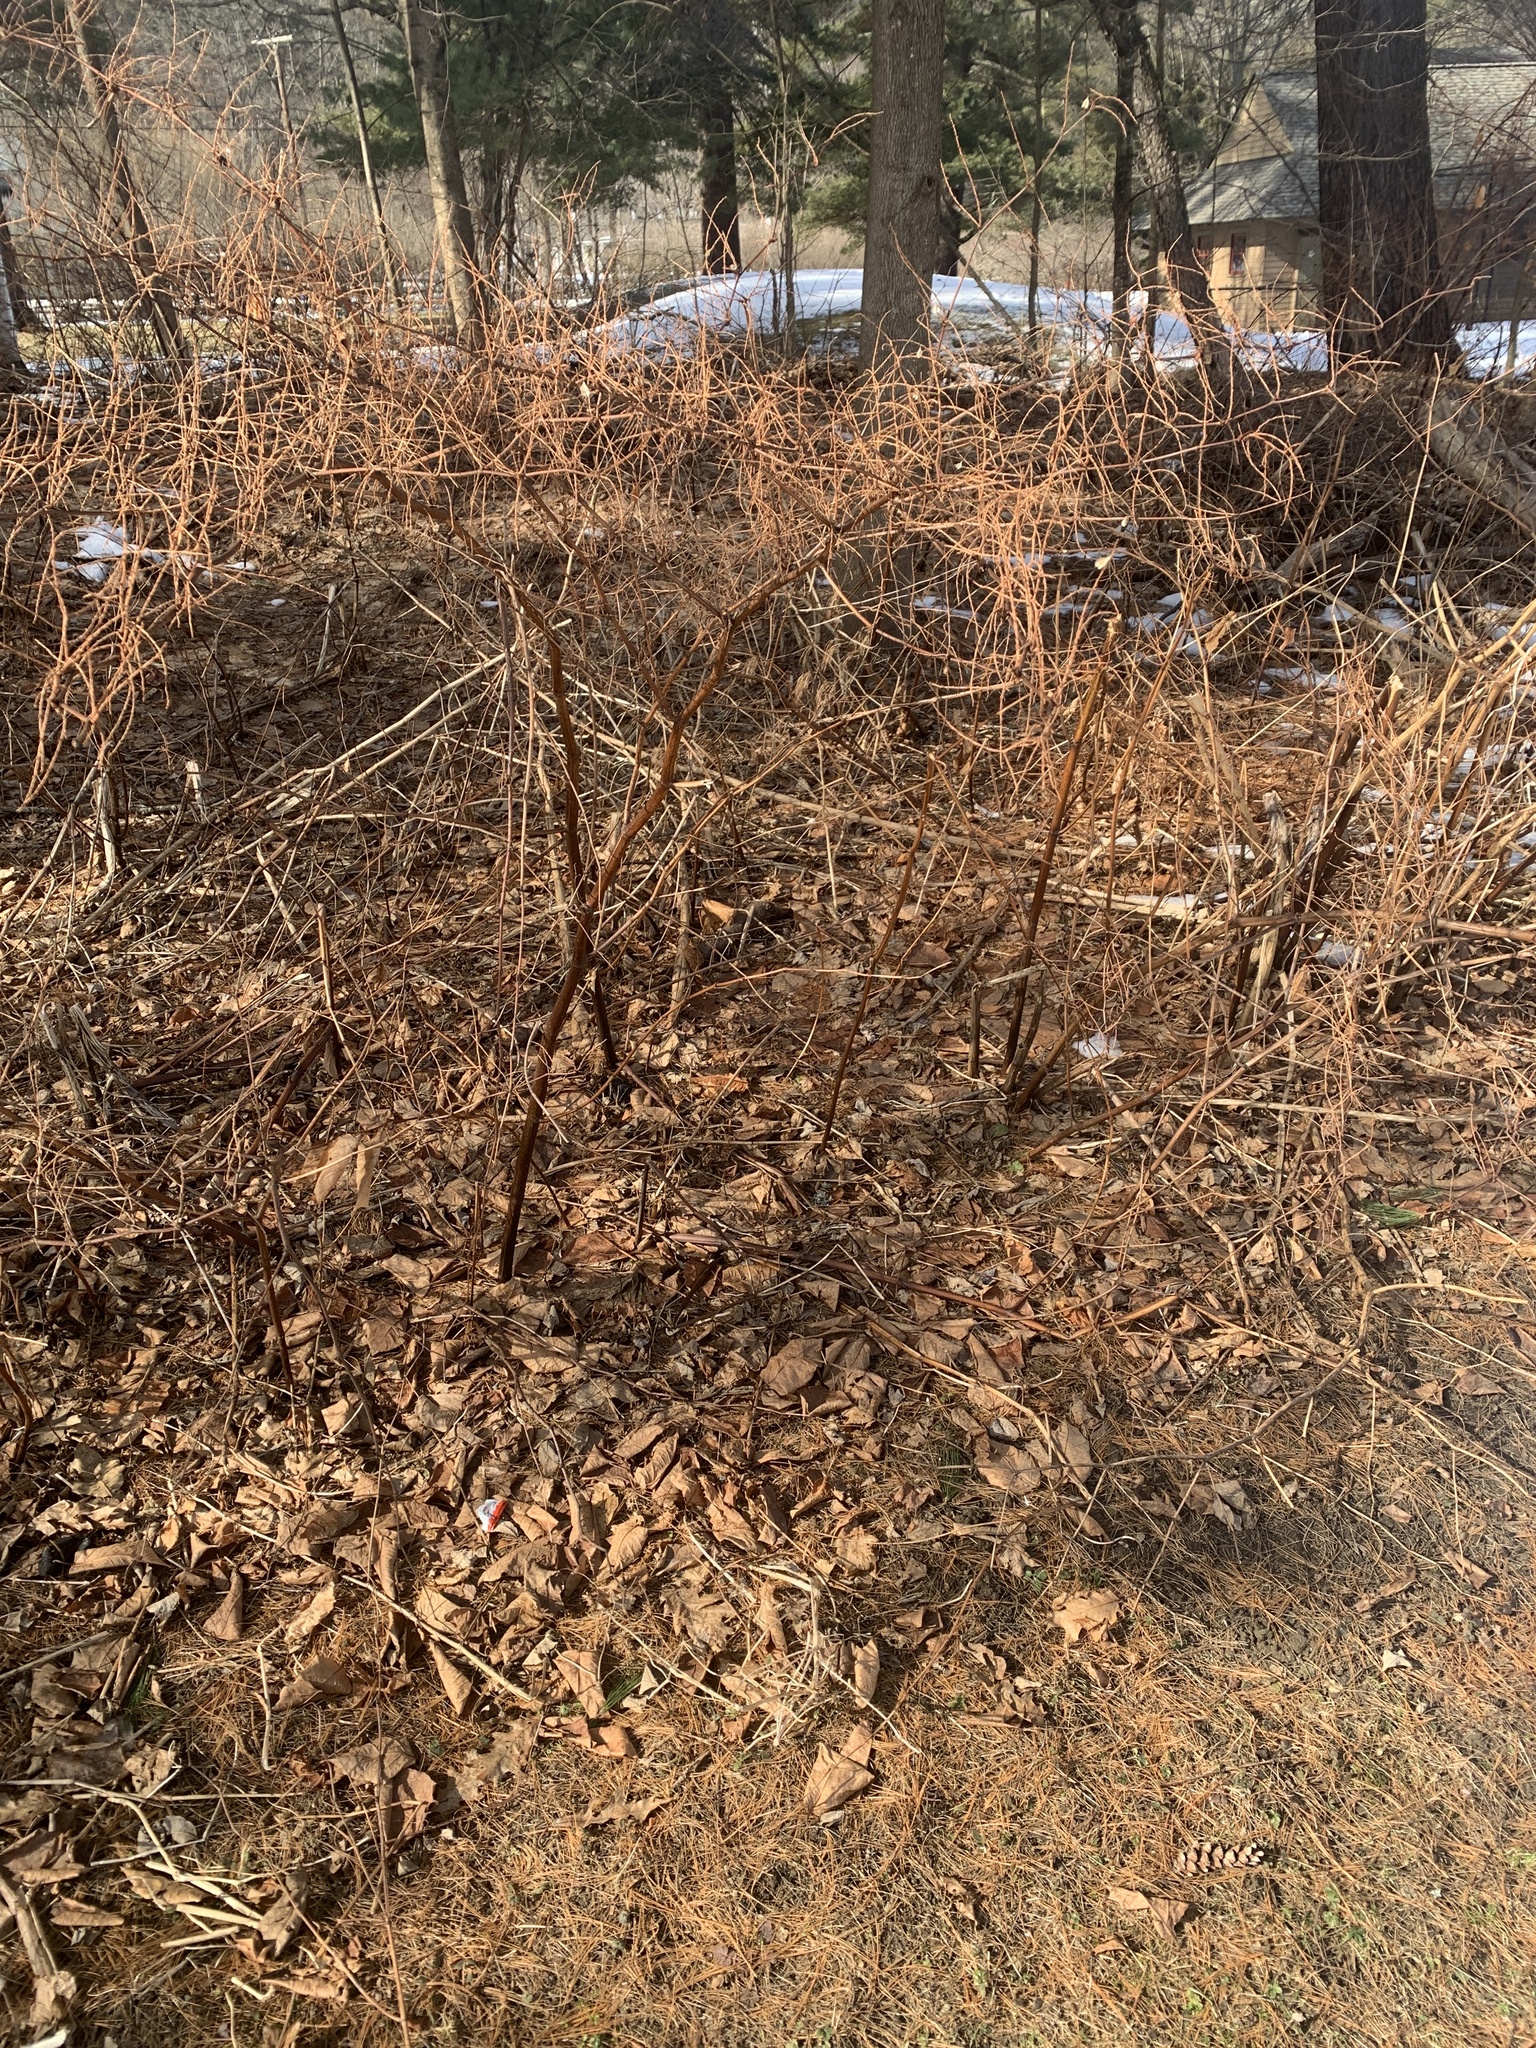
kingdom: Plantae
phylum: Tracheophyta
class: Magnoliopsida
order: Caryophyllales
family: Polygonaceae
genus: Reynoutria
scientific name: Reynoutria japonica
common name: Japanese knotweed
